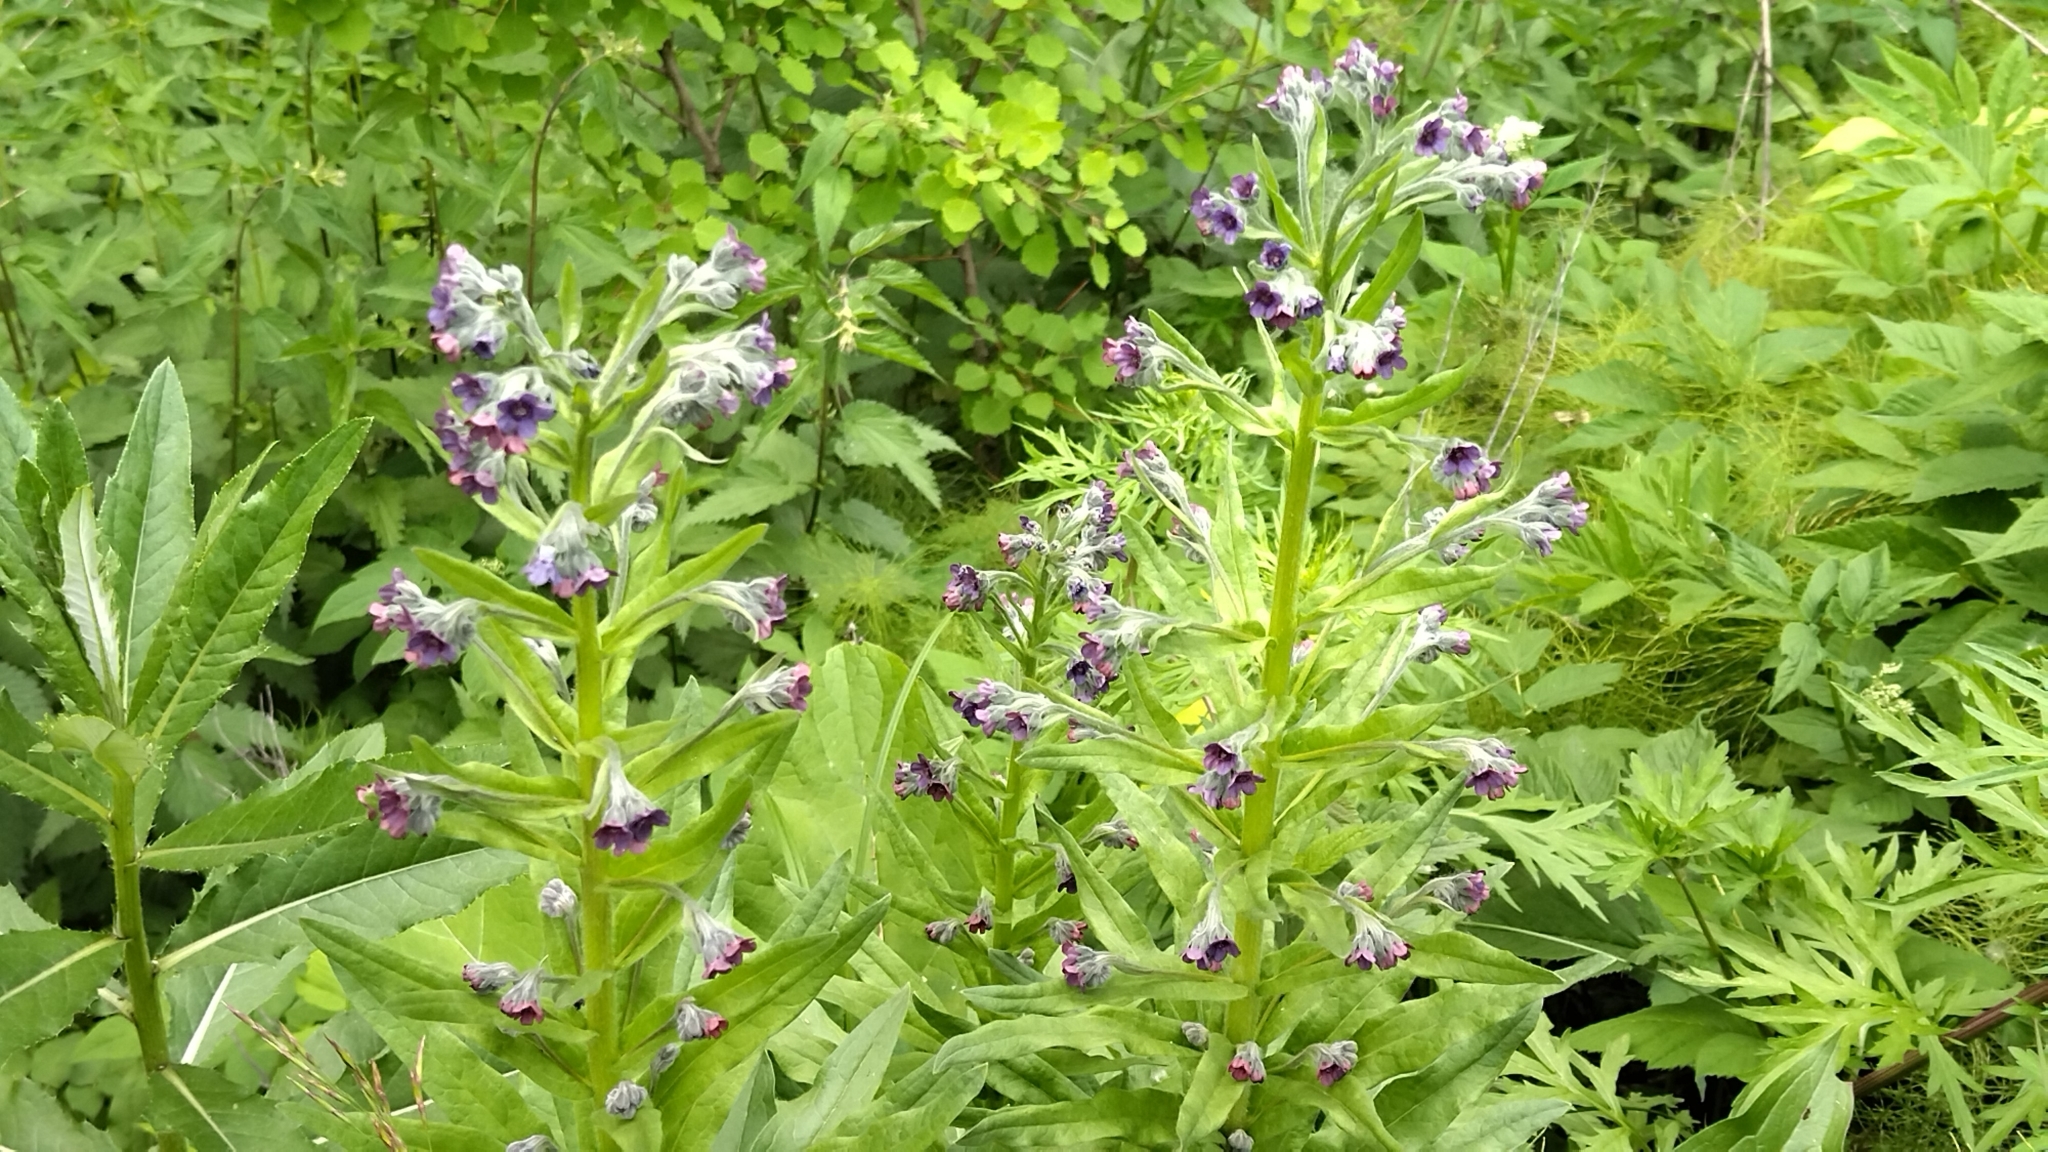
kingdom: Plantae
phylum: Tracheophyta
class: Magnoliopsida
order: Boraginales
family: Boraginaceae
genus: Cynoglossum
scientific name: Cynoglossum officinale
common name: Hound's-tongue
